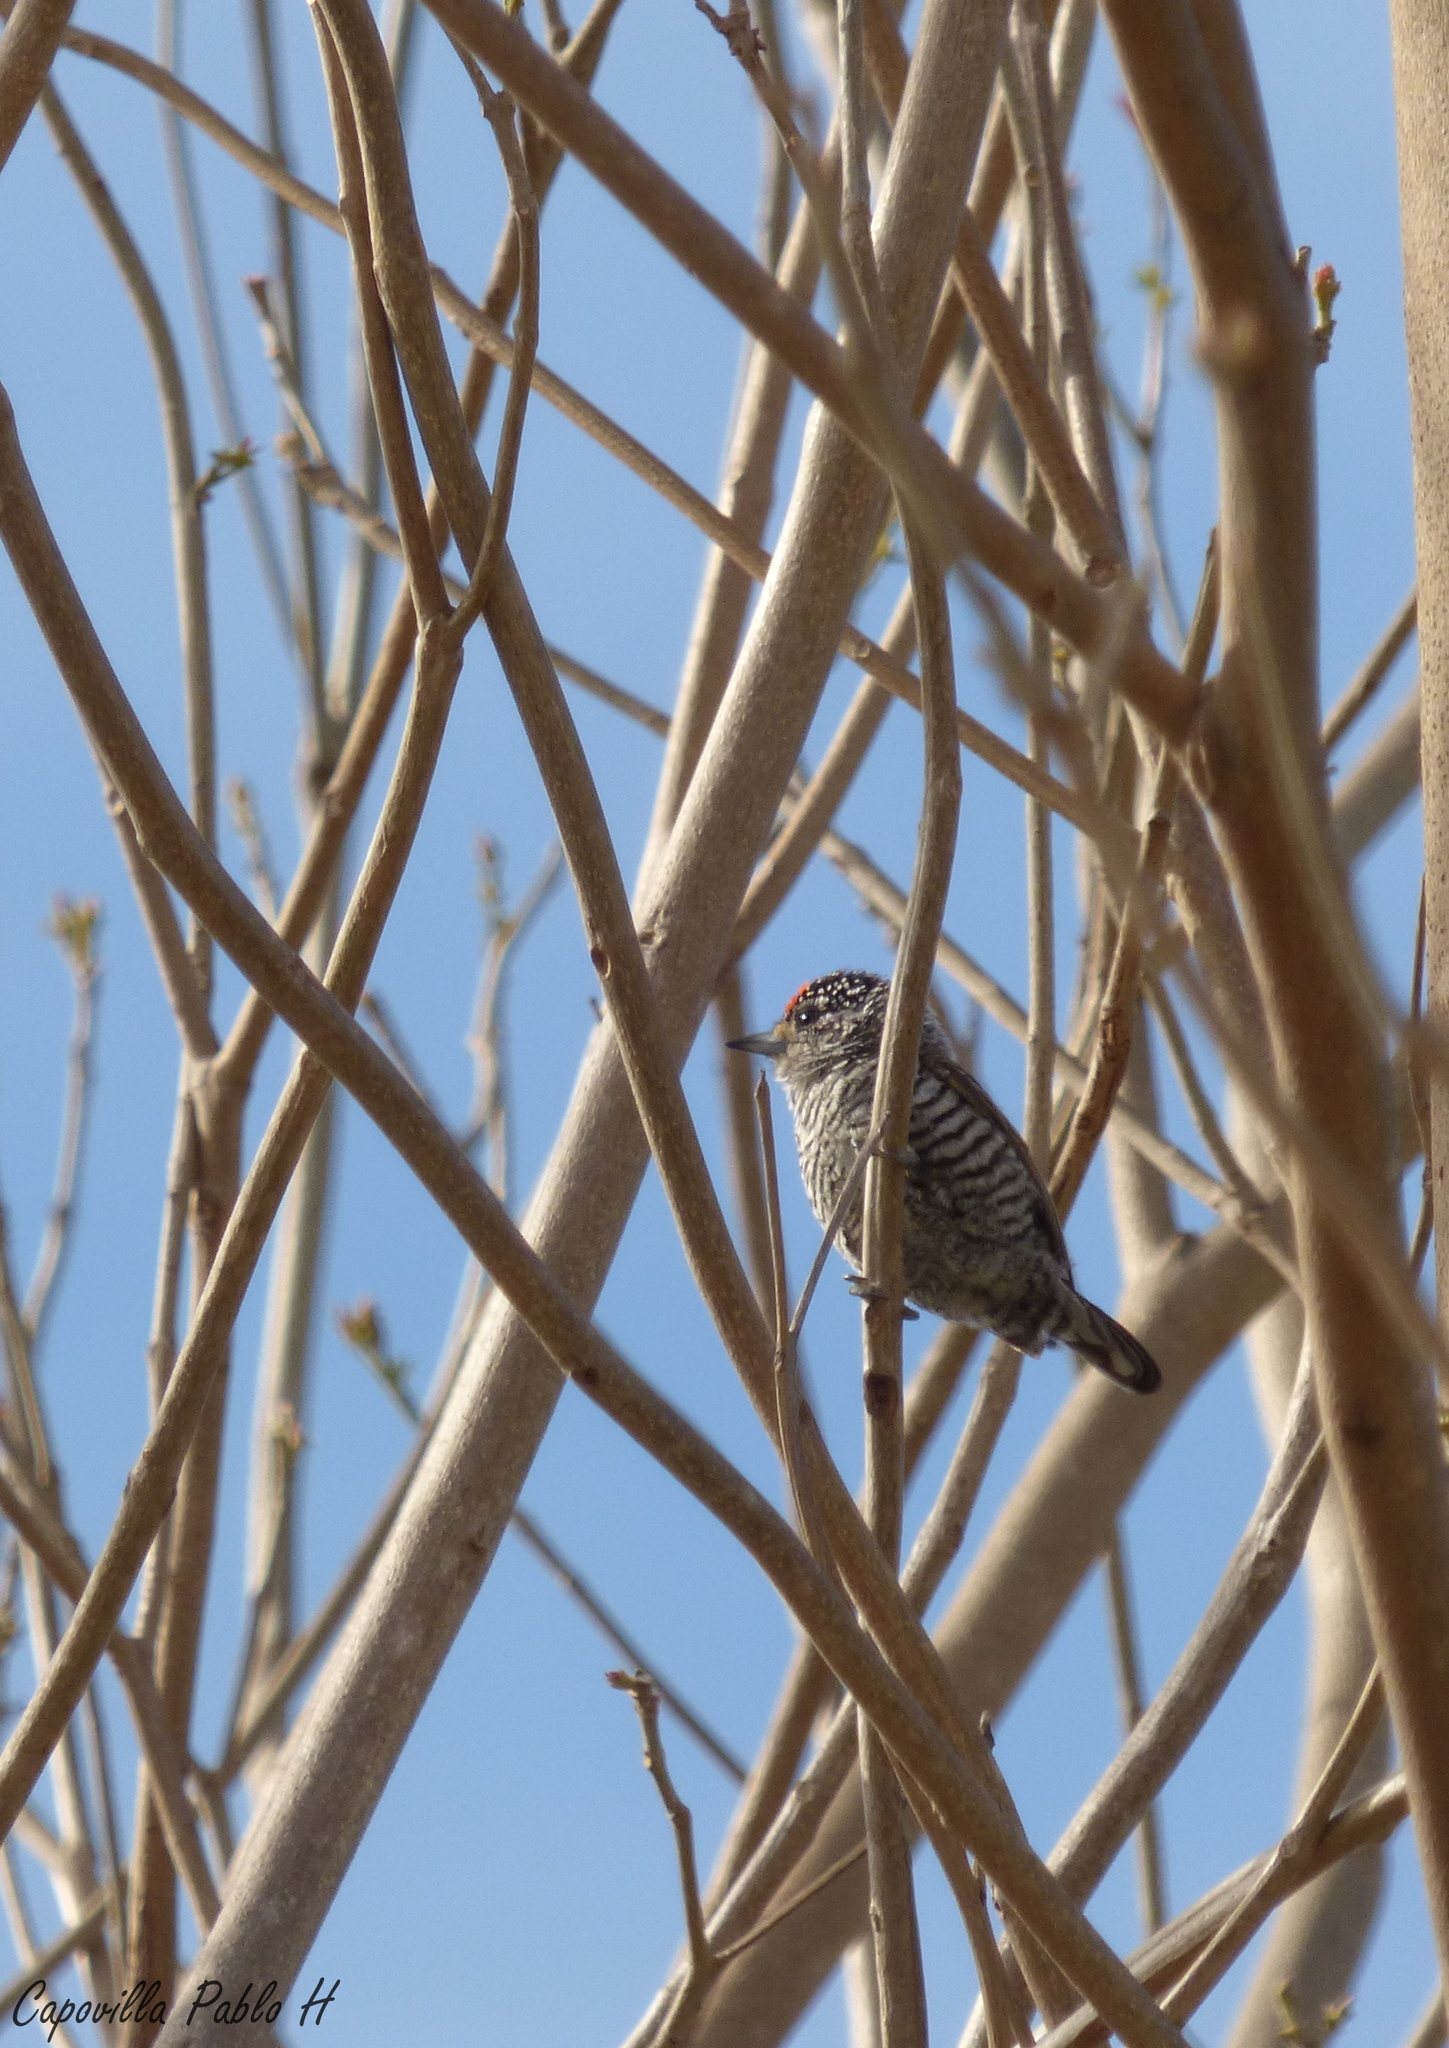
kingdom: Animalia
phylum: Chordata
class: Aves
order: Piciformes
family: Picidae
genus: Picumnus
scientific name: Picumnus cirratus
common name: White-barred piculet
